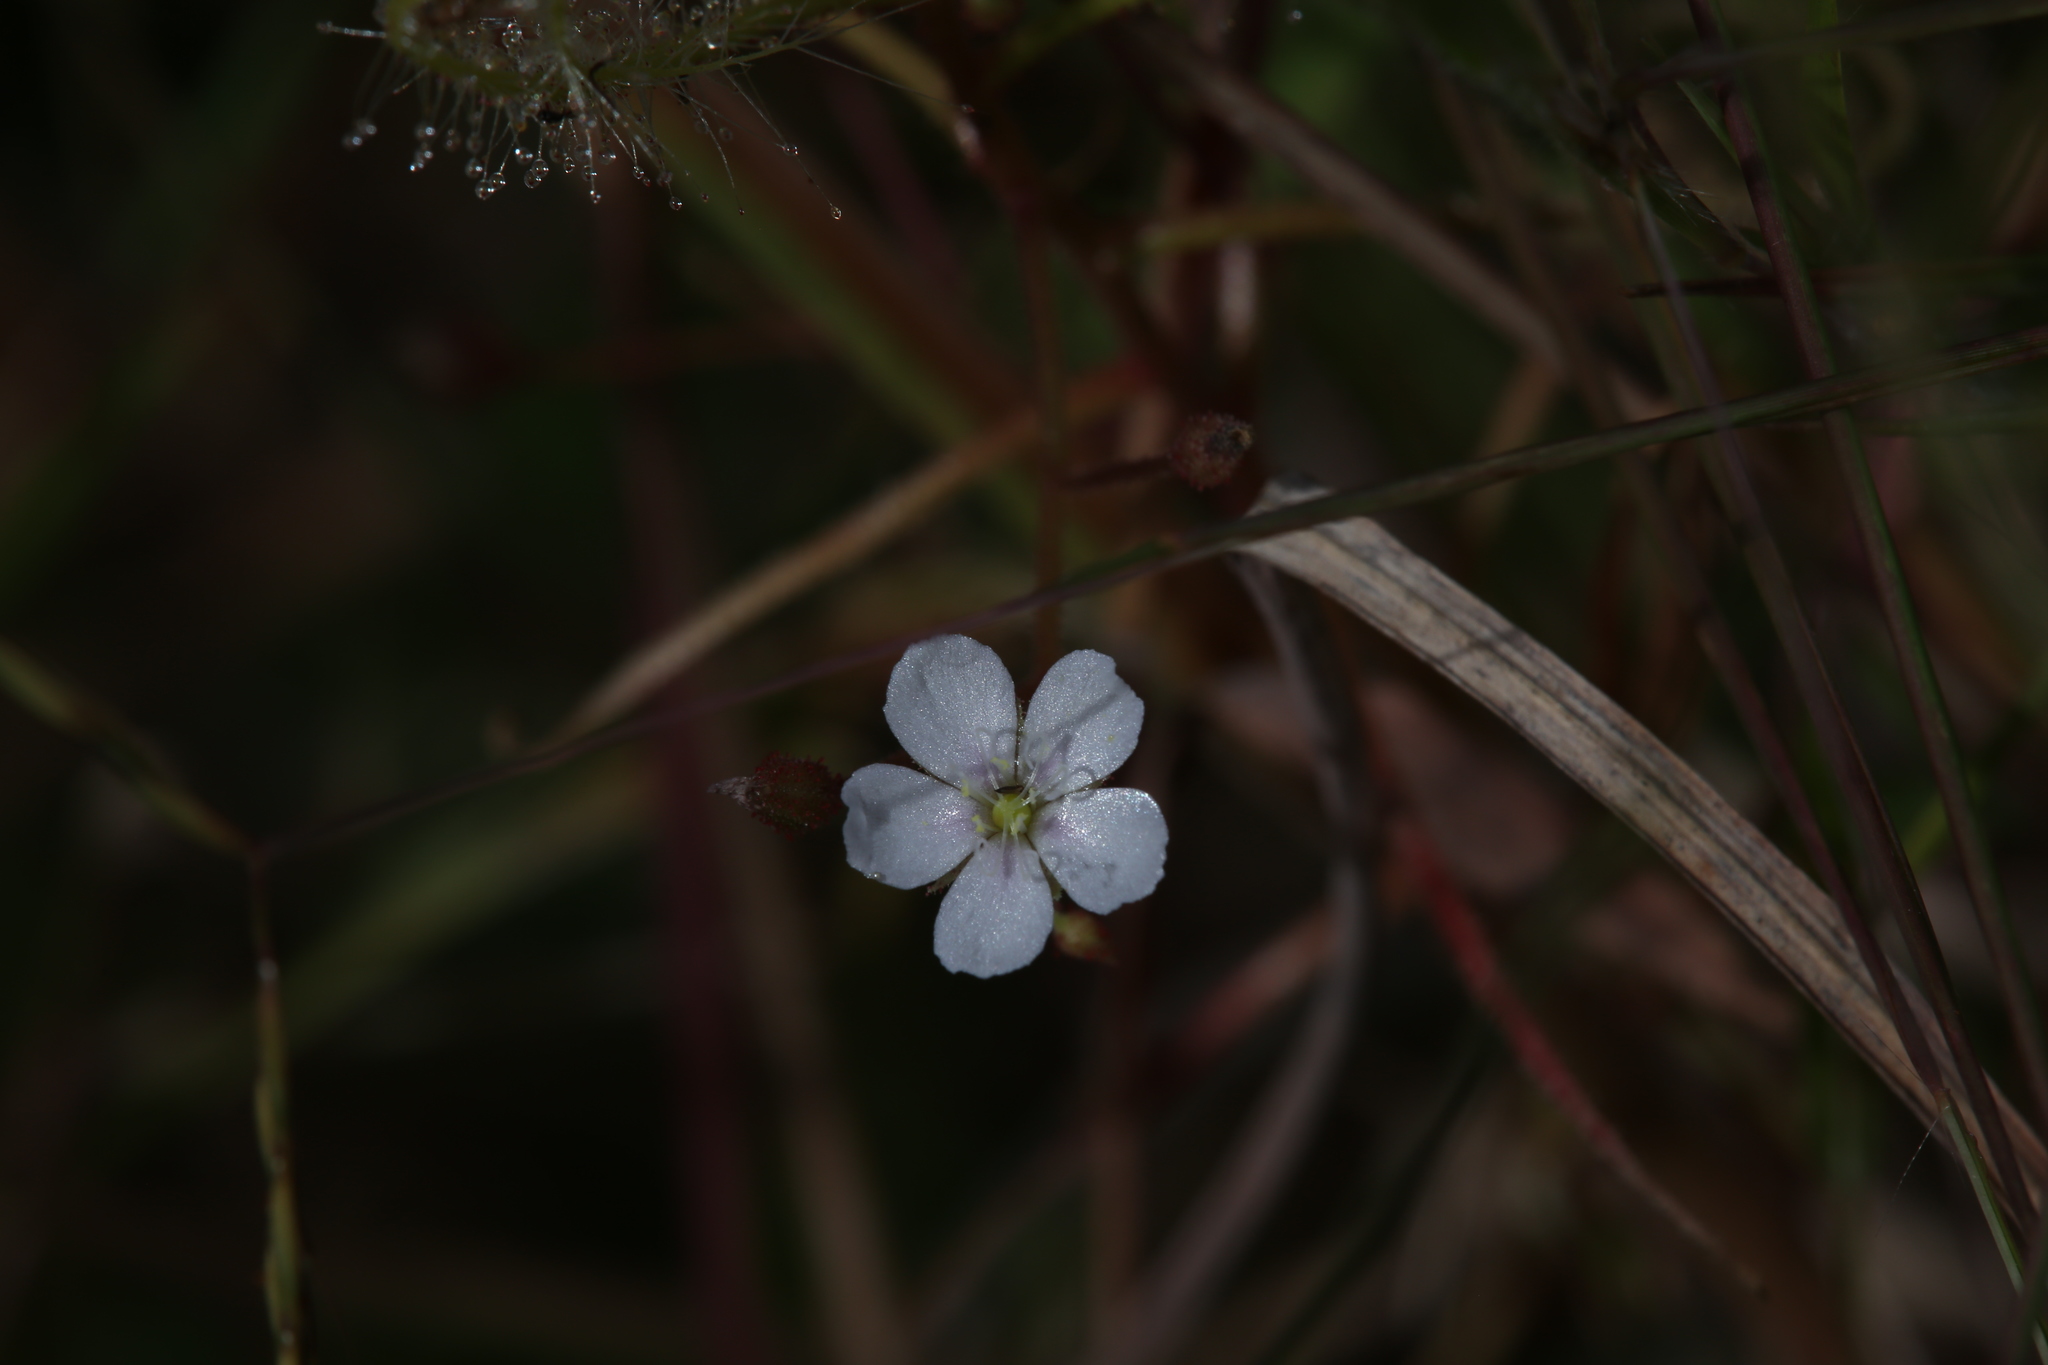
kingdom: Plantae
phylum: Tracheophyta
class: Magnoliopsida
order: Caryophyllales
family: Droseraceae
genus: Drosera
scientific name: Drosera indica
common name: Indian sundew
